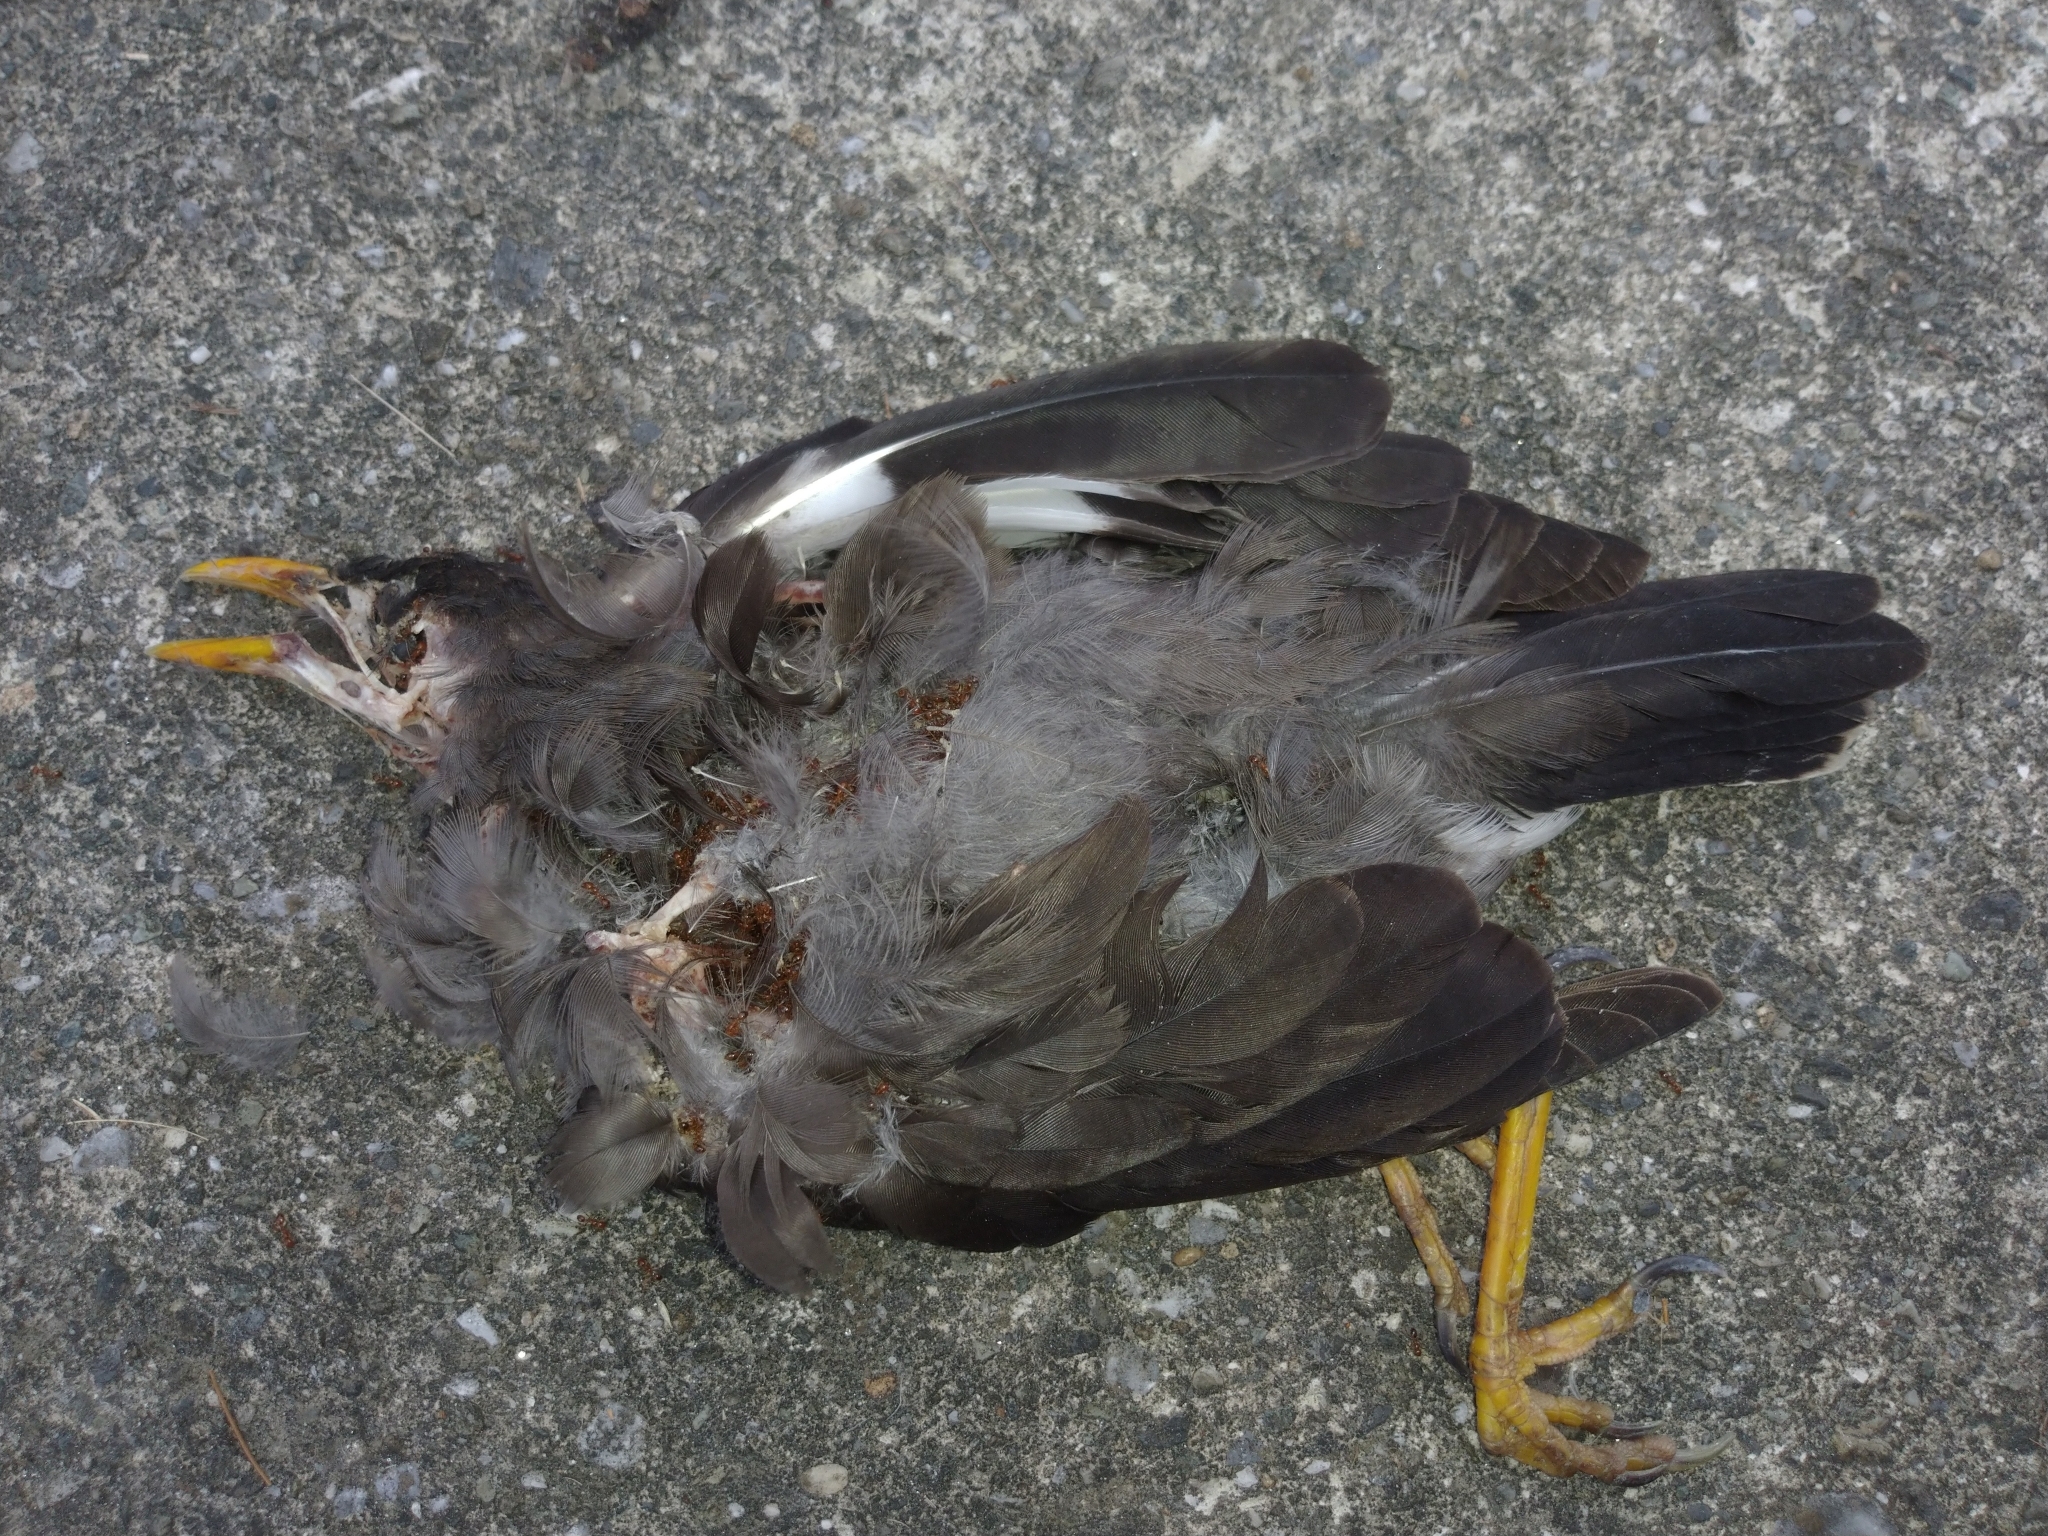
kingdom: Animalia
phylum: Chordata
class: Aves
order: Passeriformes
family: Sturnidae
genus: Acridotheres
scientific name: Acridotheres javanicus
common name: Javan myna
